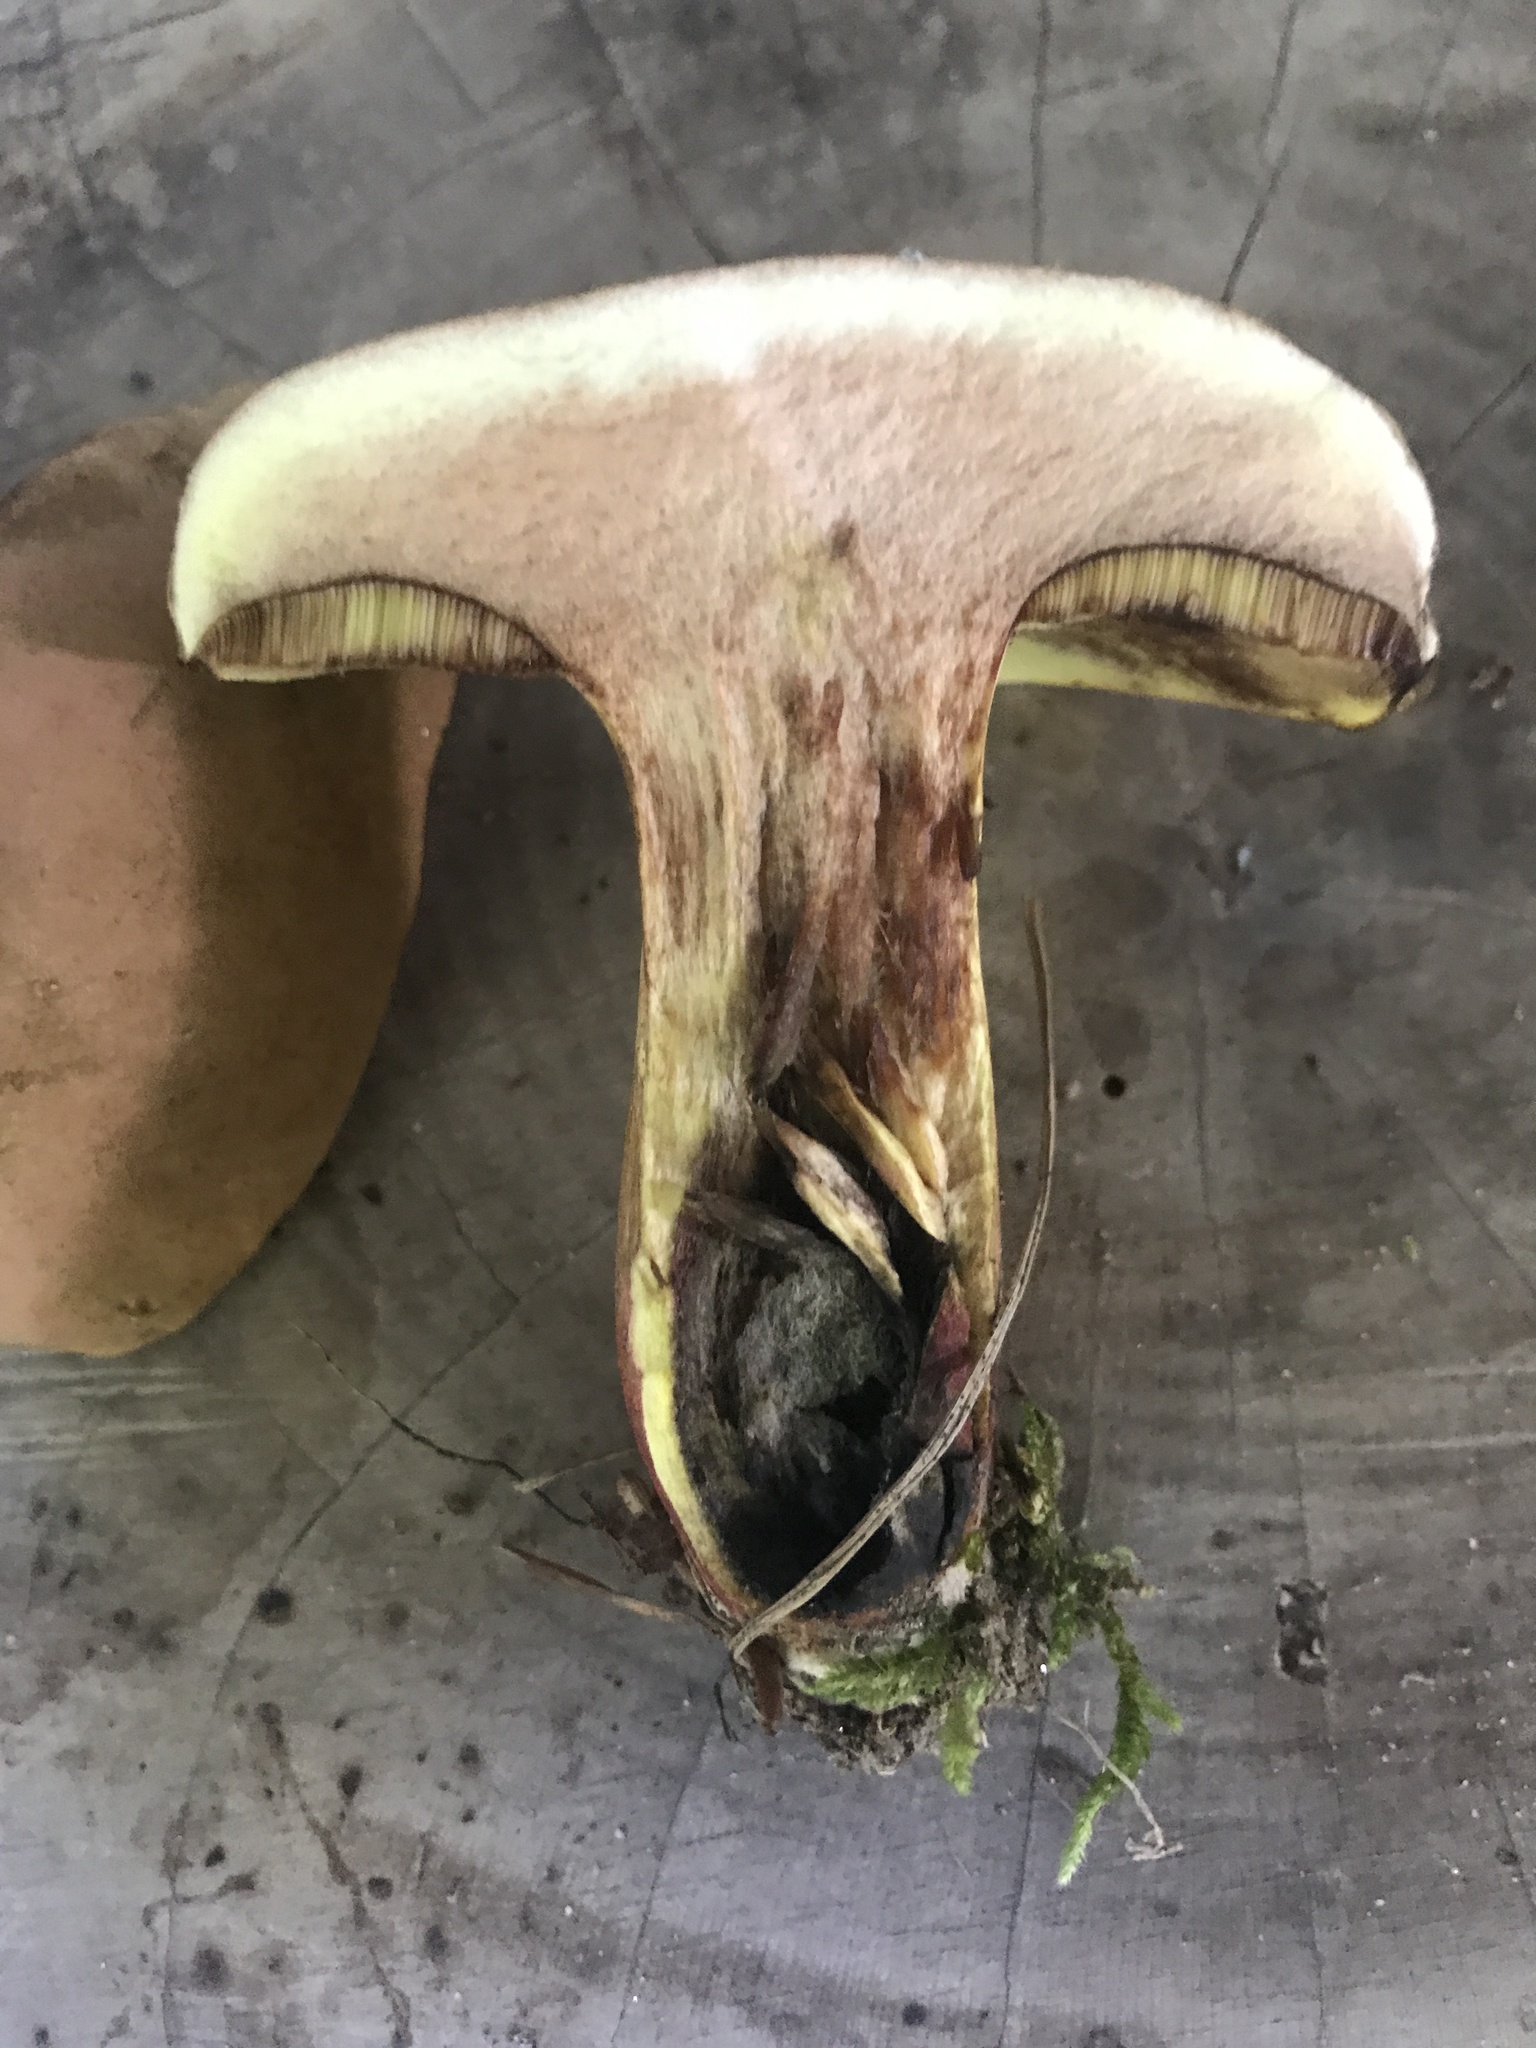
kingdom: Fungi
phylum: Basidiomycota
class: Agaricomycetes
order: Boletales
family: Boletaceae
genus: Lanmaoa
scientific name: Lanmaoa pseudosensibilis
